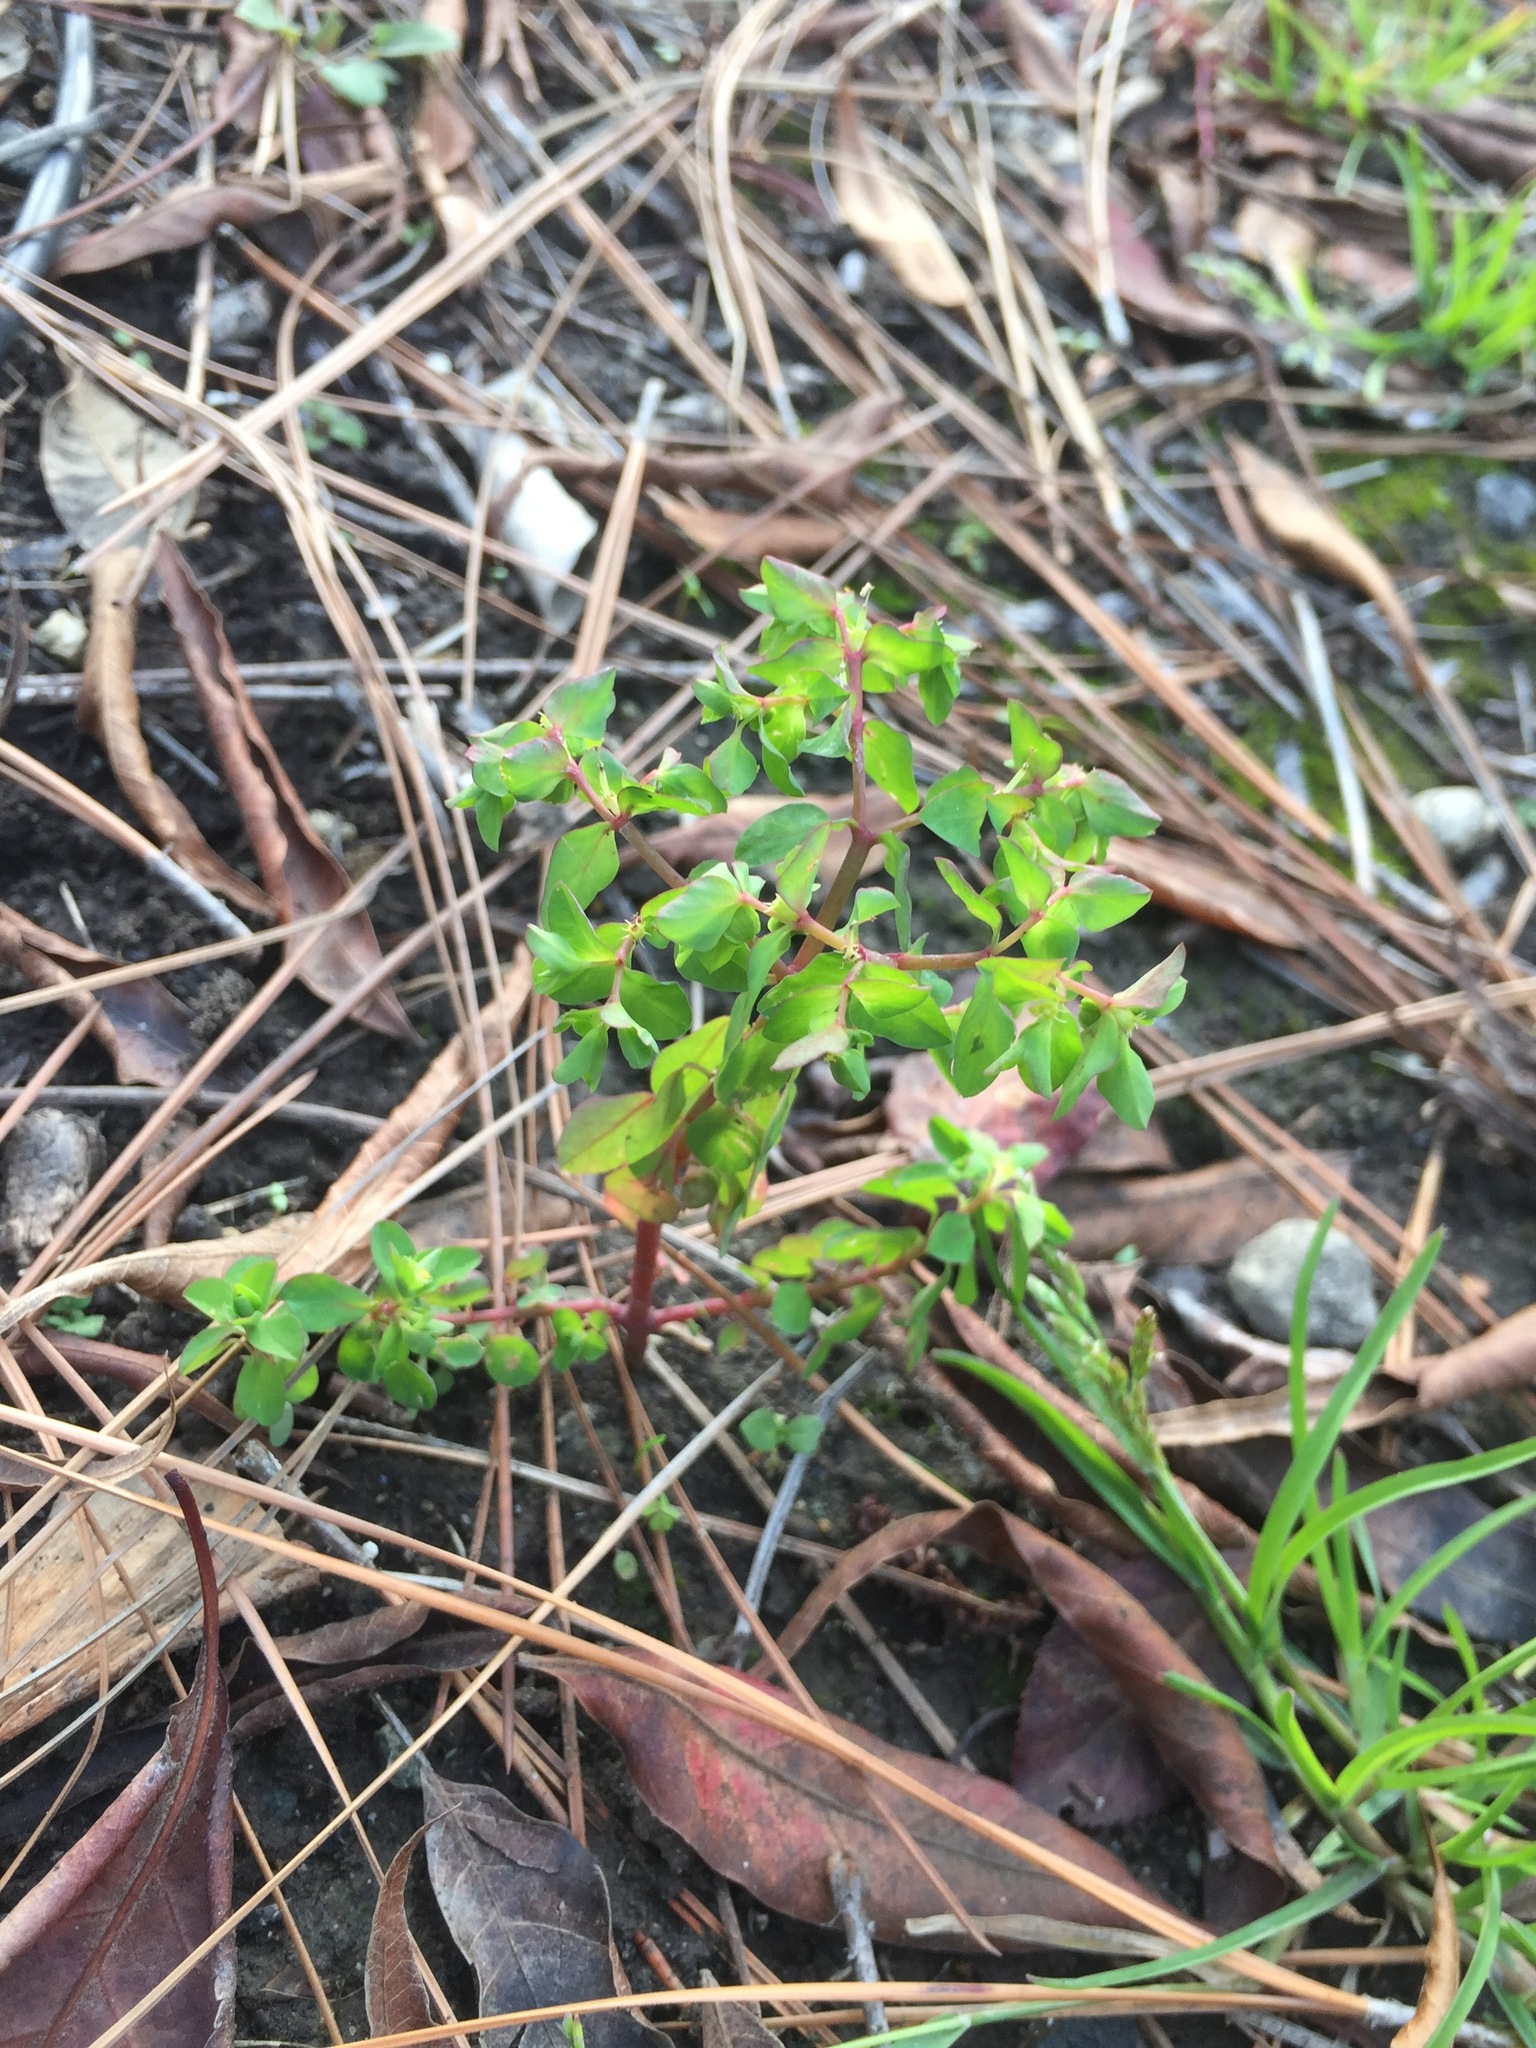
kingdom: Plantae
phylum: Tracheophyta
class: Magnoliopsida
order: Malpighiales
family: Euphorbiaceae
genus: Euphorbia
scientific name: Euphorbia peplus
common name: Petty spurge
